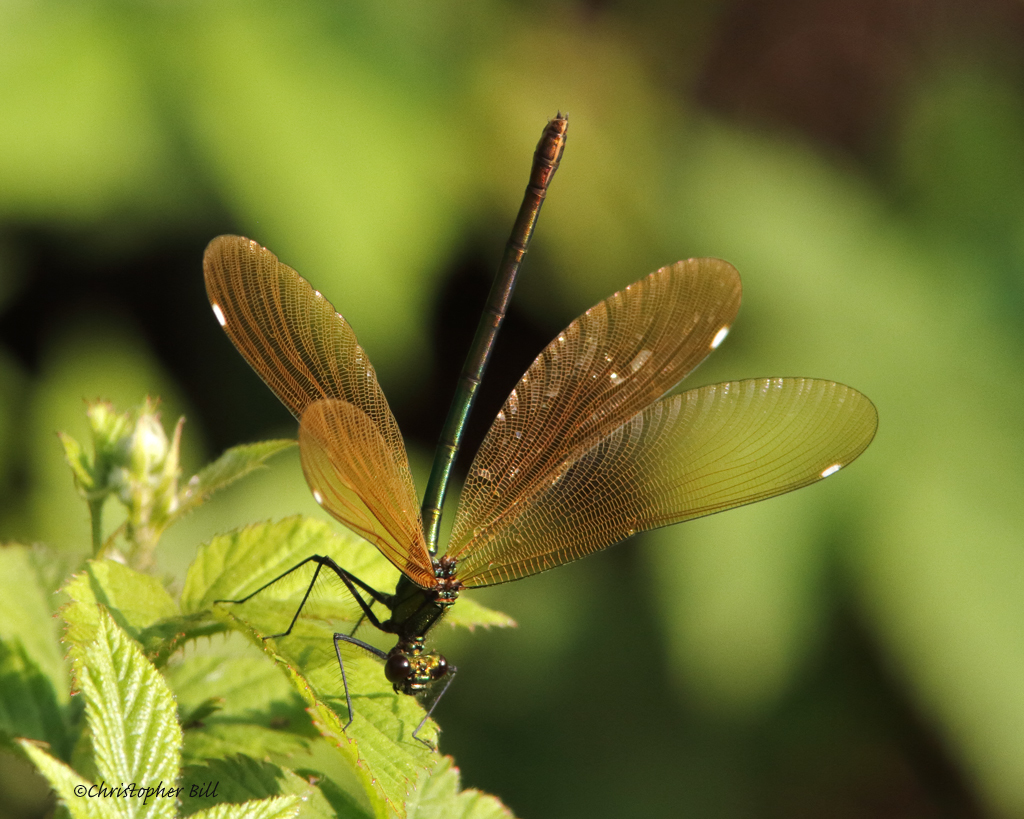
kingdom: Animalia
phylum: Arthropoda
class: Insecta
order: Odonata
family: Calopterygidae
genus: Calopteryx
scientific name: Calopteryx virgo
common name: Beautiful demoiselle
